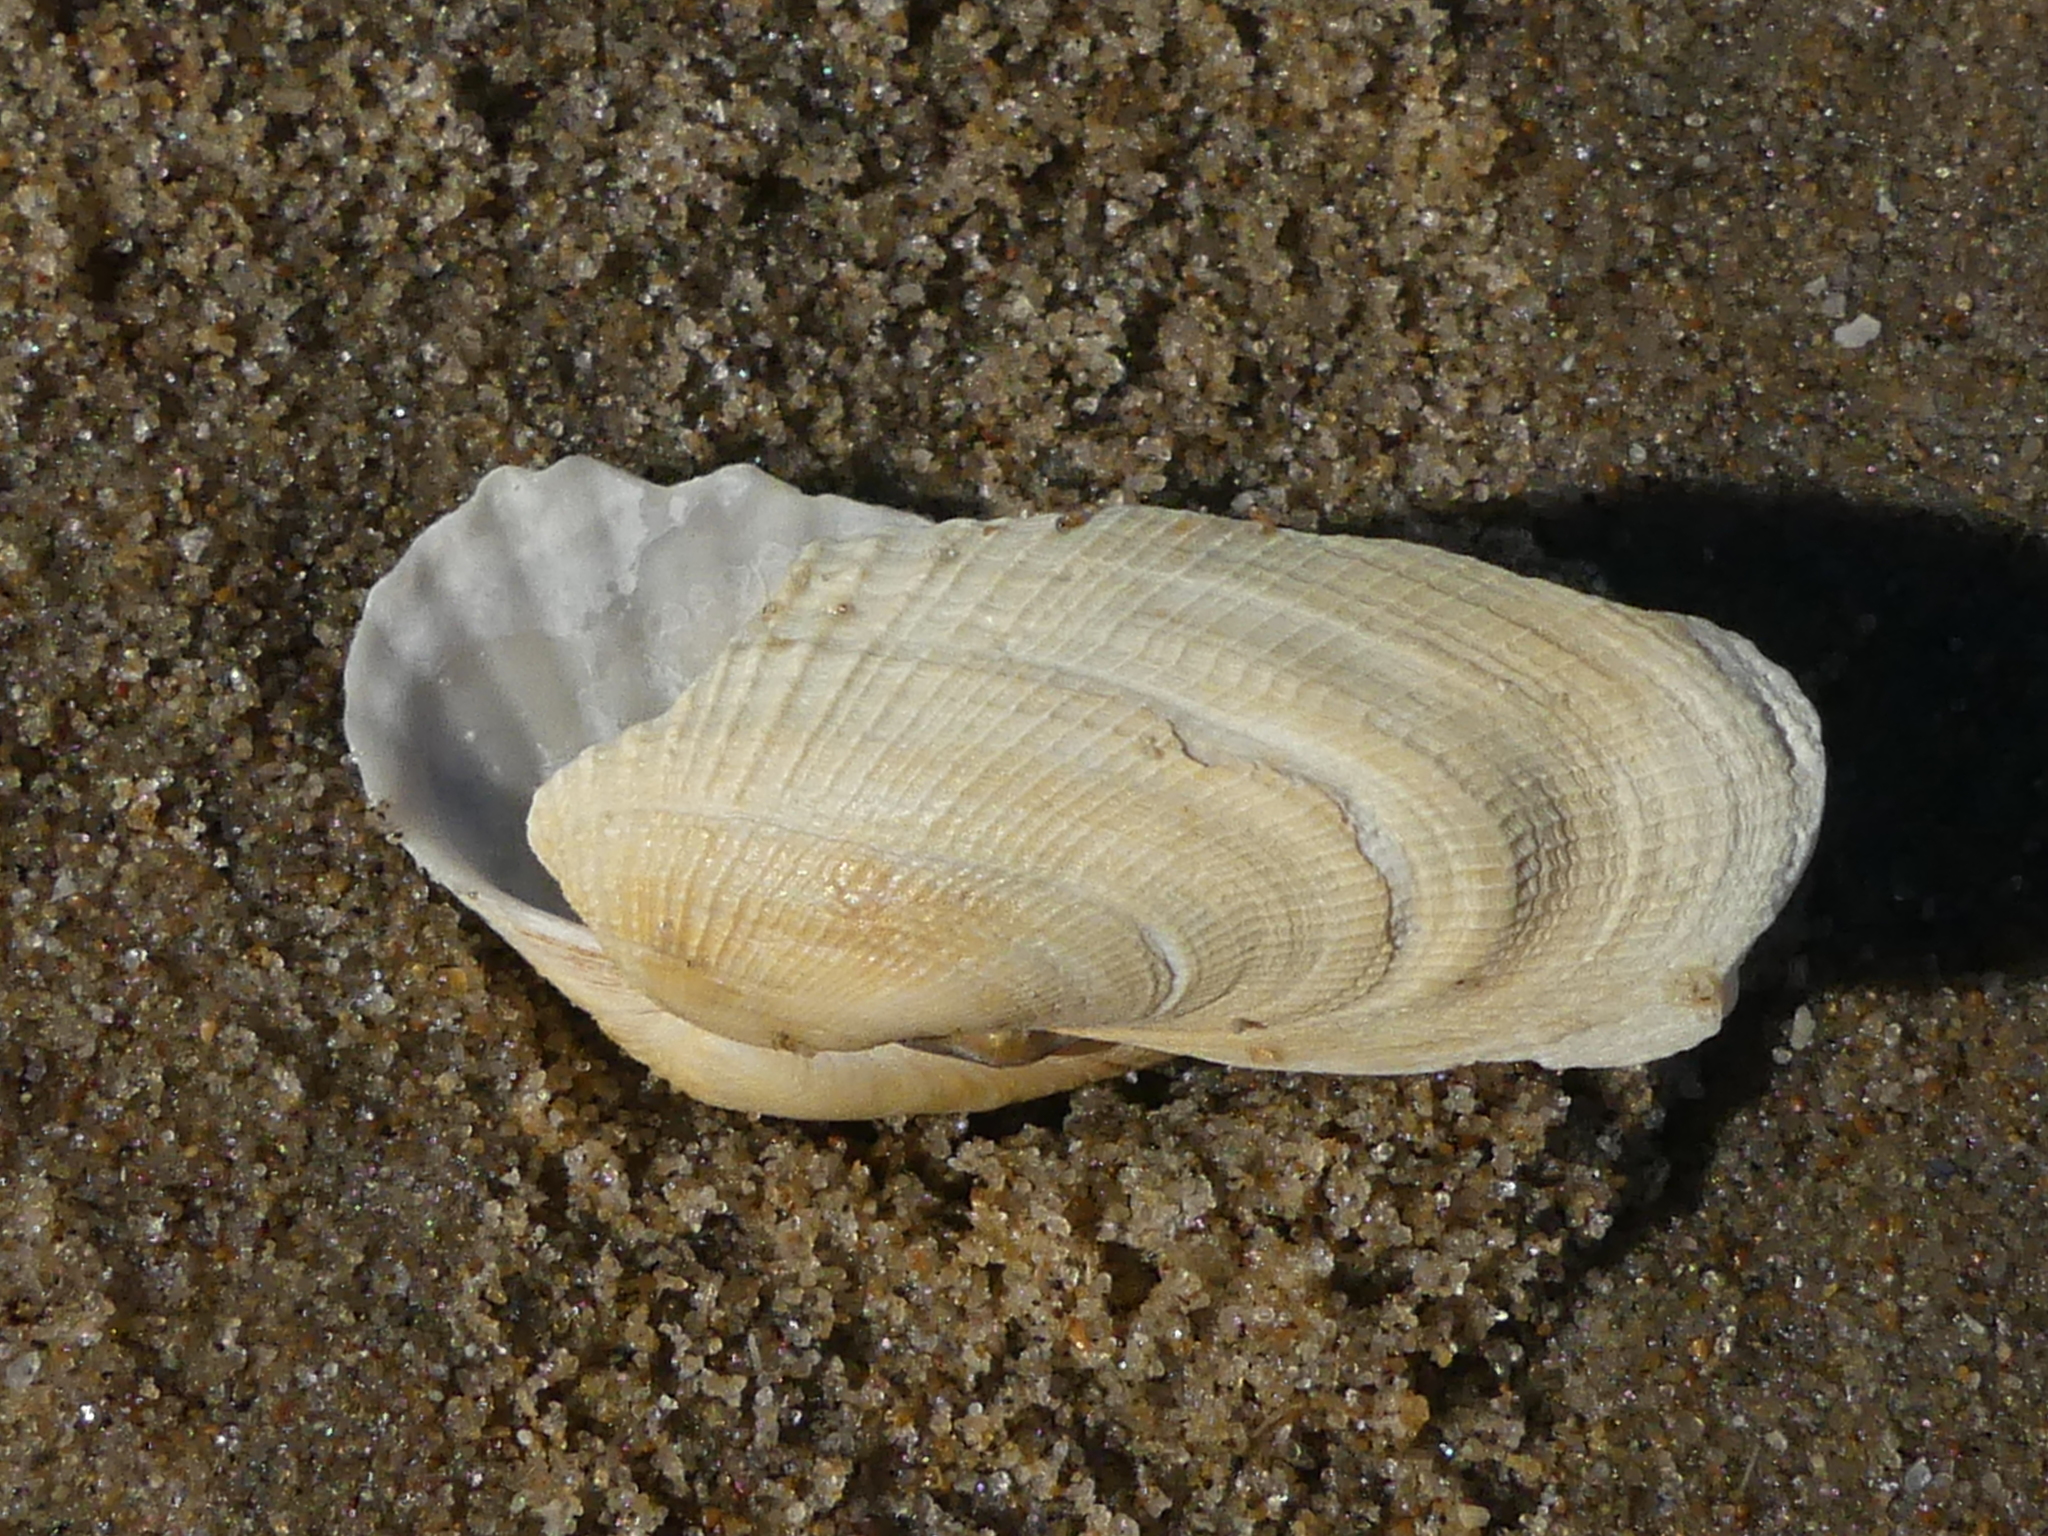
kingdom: Animalia
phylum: Mollusca
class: Bivalvia
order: Venerida
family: Veneridae
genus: Petricolaria
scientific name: Petricolaria pholadiformis
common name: American piddock
